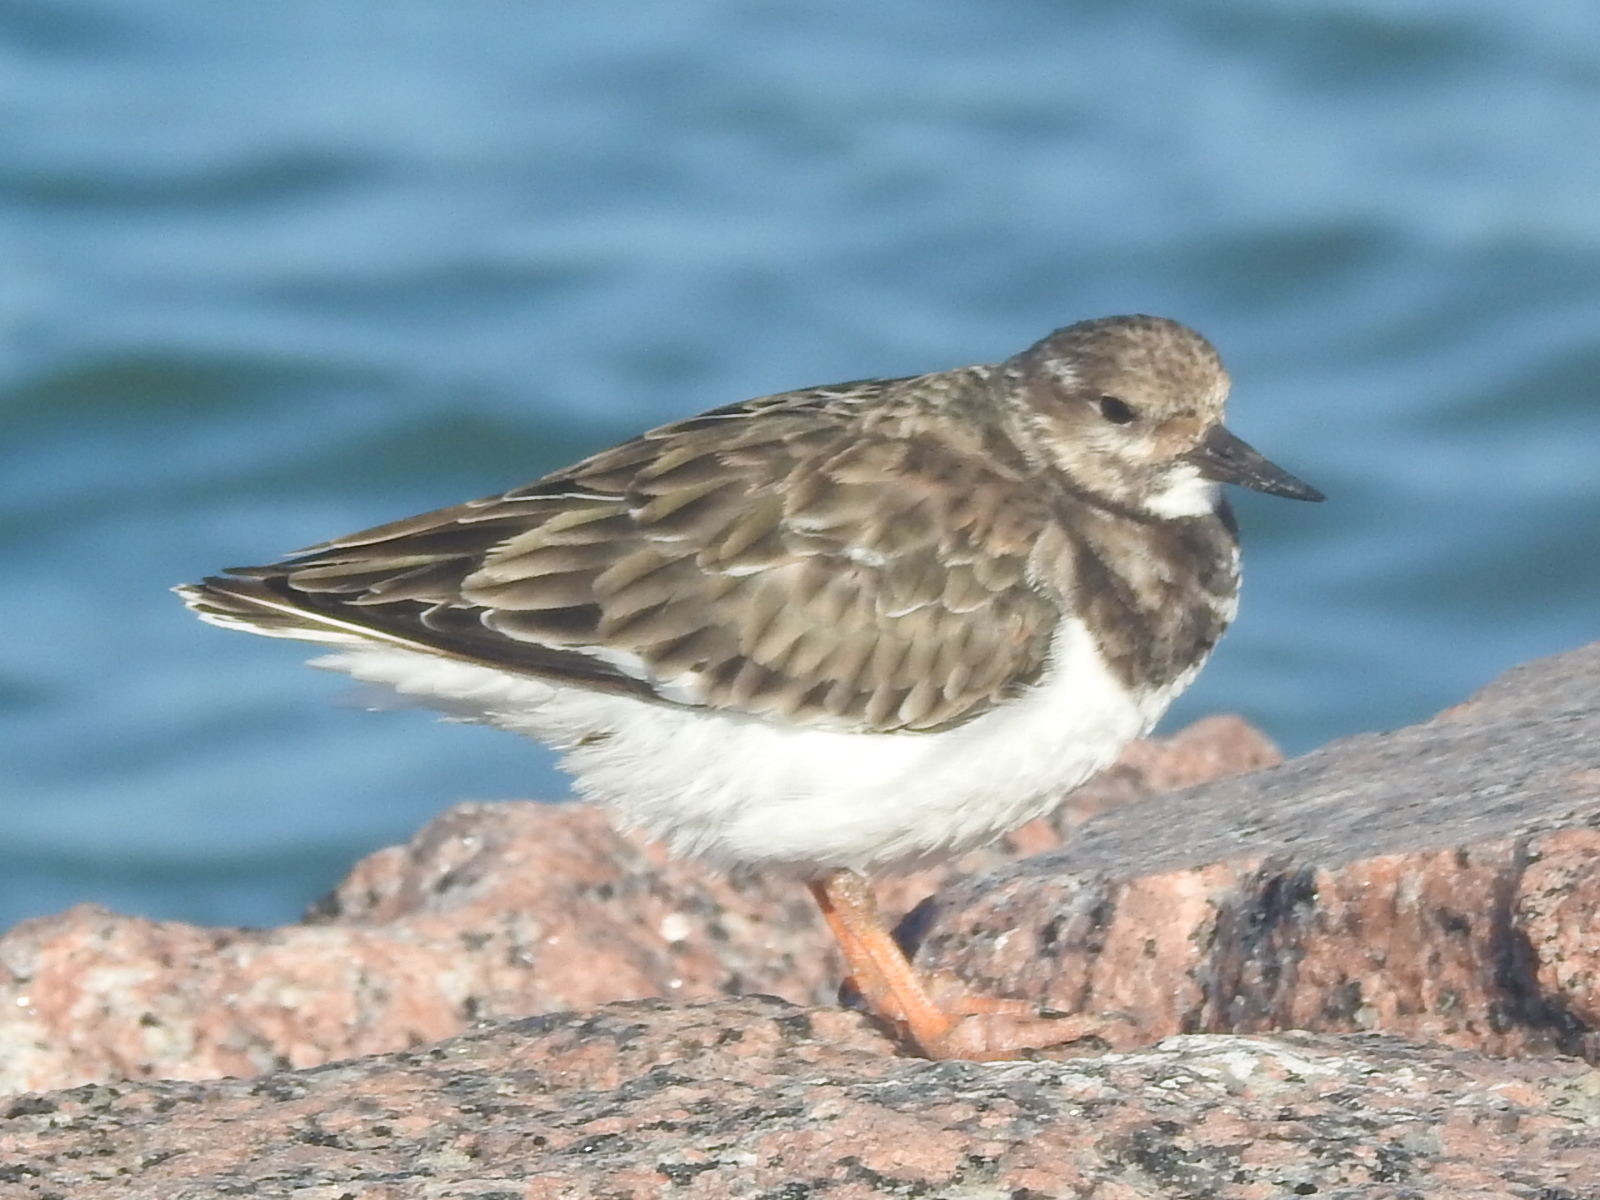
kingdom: Animalia
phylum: Chordata
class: Aves
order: Charadriiformes
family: Scolopacidae
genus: Arenaria
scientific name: Arenaria interpres
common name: Ruddy turnstone
